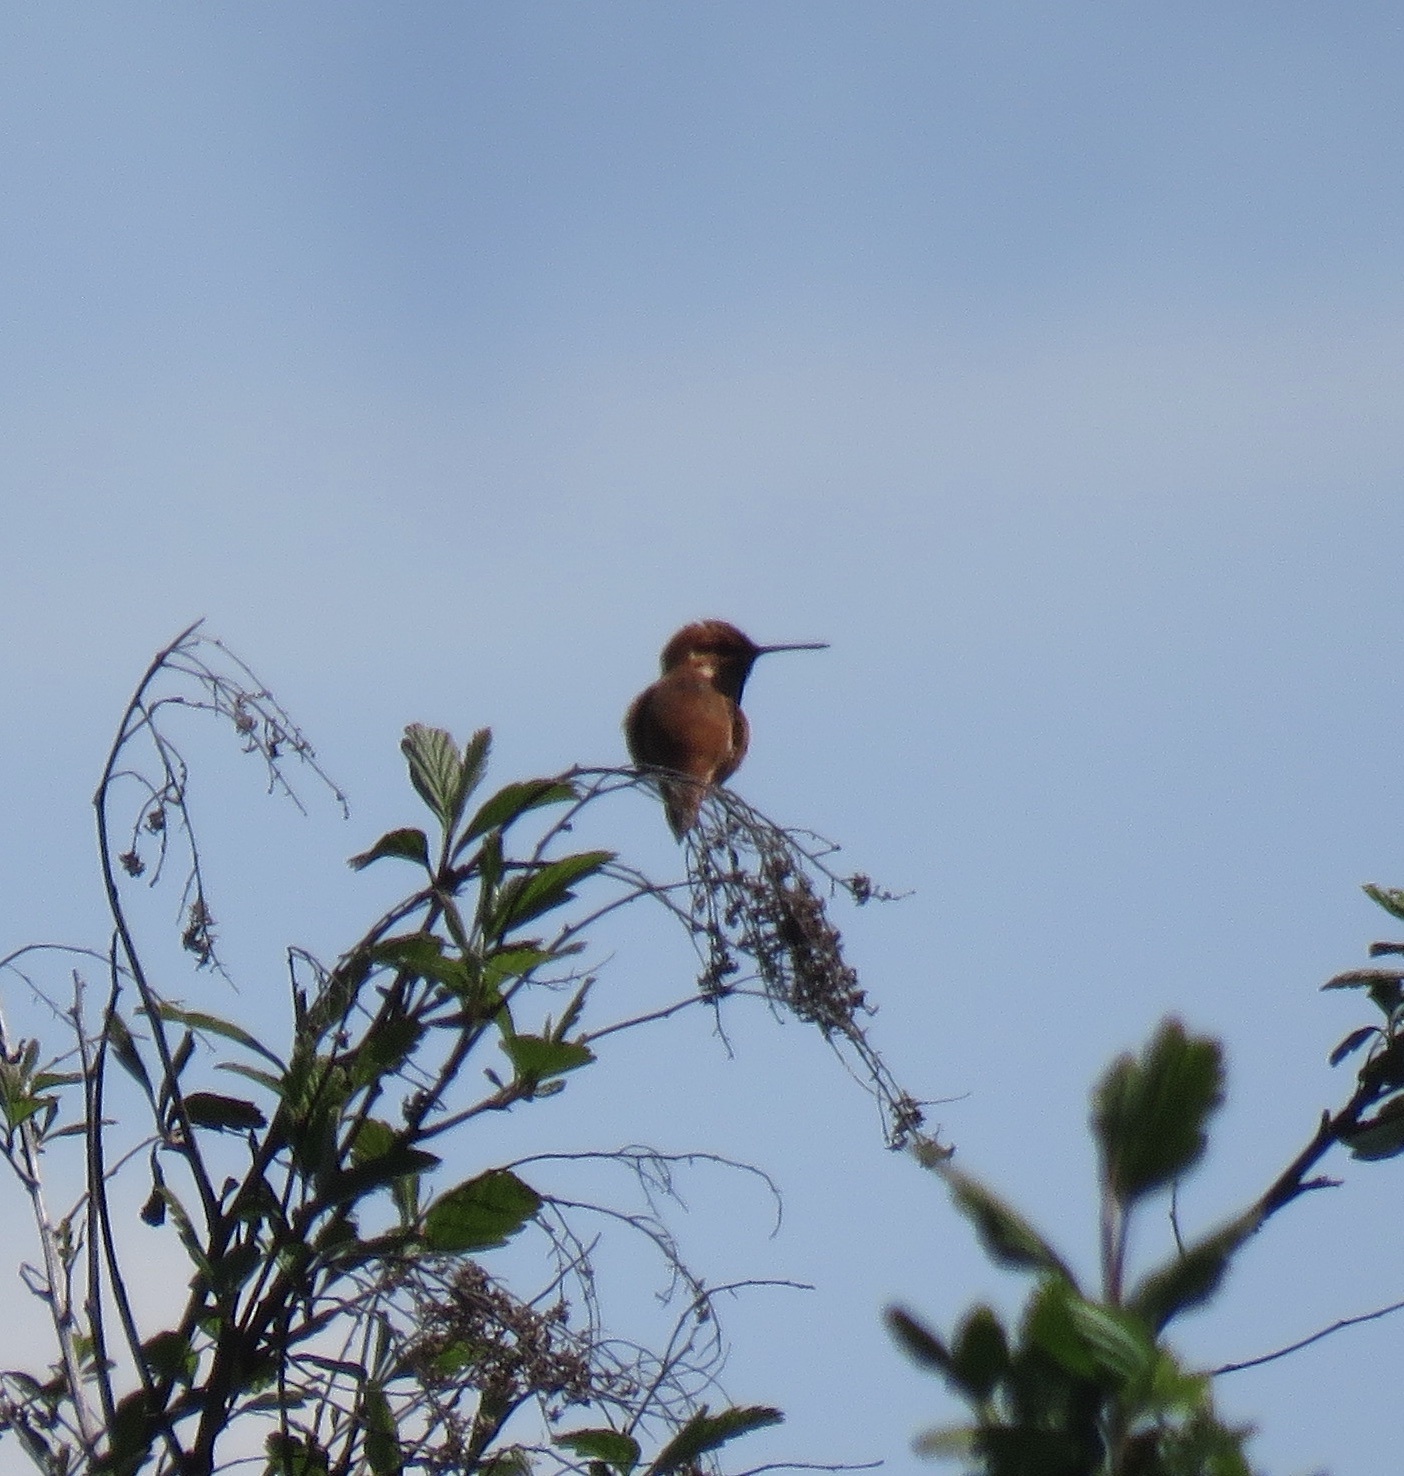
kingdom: Animalia
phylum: Chordata
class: Aves
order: Apodiformes
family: Trochilidae
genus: Selasphorus
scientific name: Selasphorus rufus
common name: Rufous hummingbird
